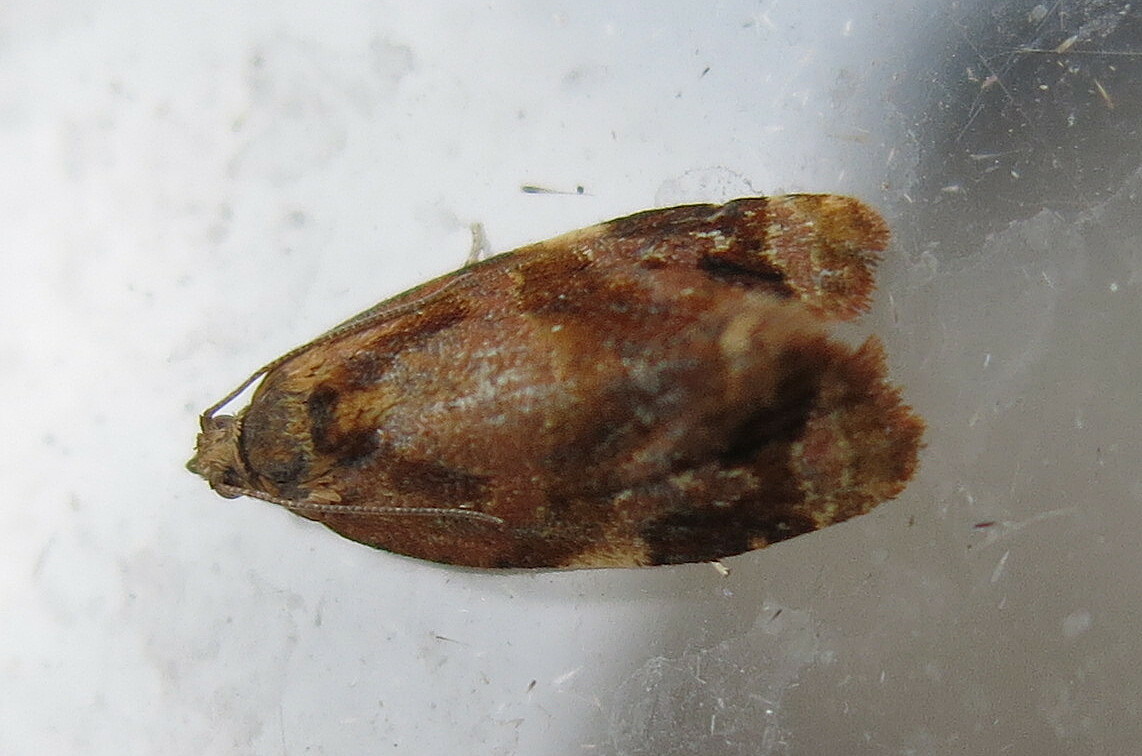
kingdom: Animalia
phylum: Arthropoda
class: Insecta
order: Lepidoptera
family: Tortricidae
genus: Ditula
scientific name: Ditula angustiorana
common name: Red-barred tortrix
